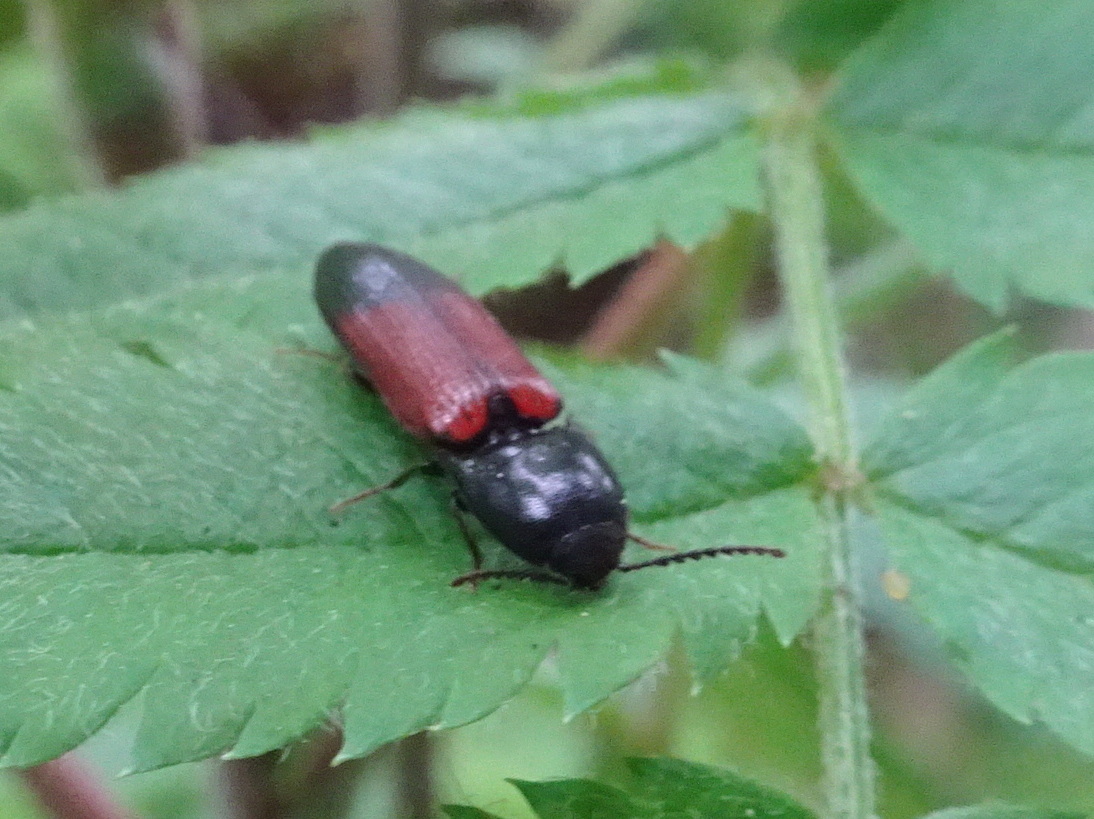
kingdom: Animalia
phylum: Arthropoda
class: Insecta
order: Coleoptera
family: Elateridae
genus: Ampedus
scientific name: Ampedus balteatus
